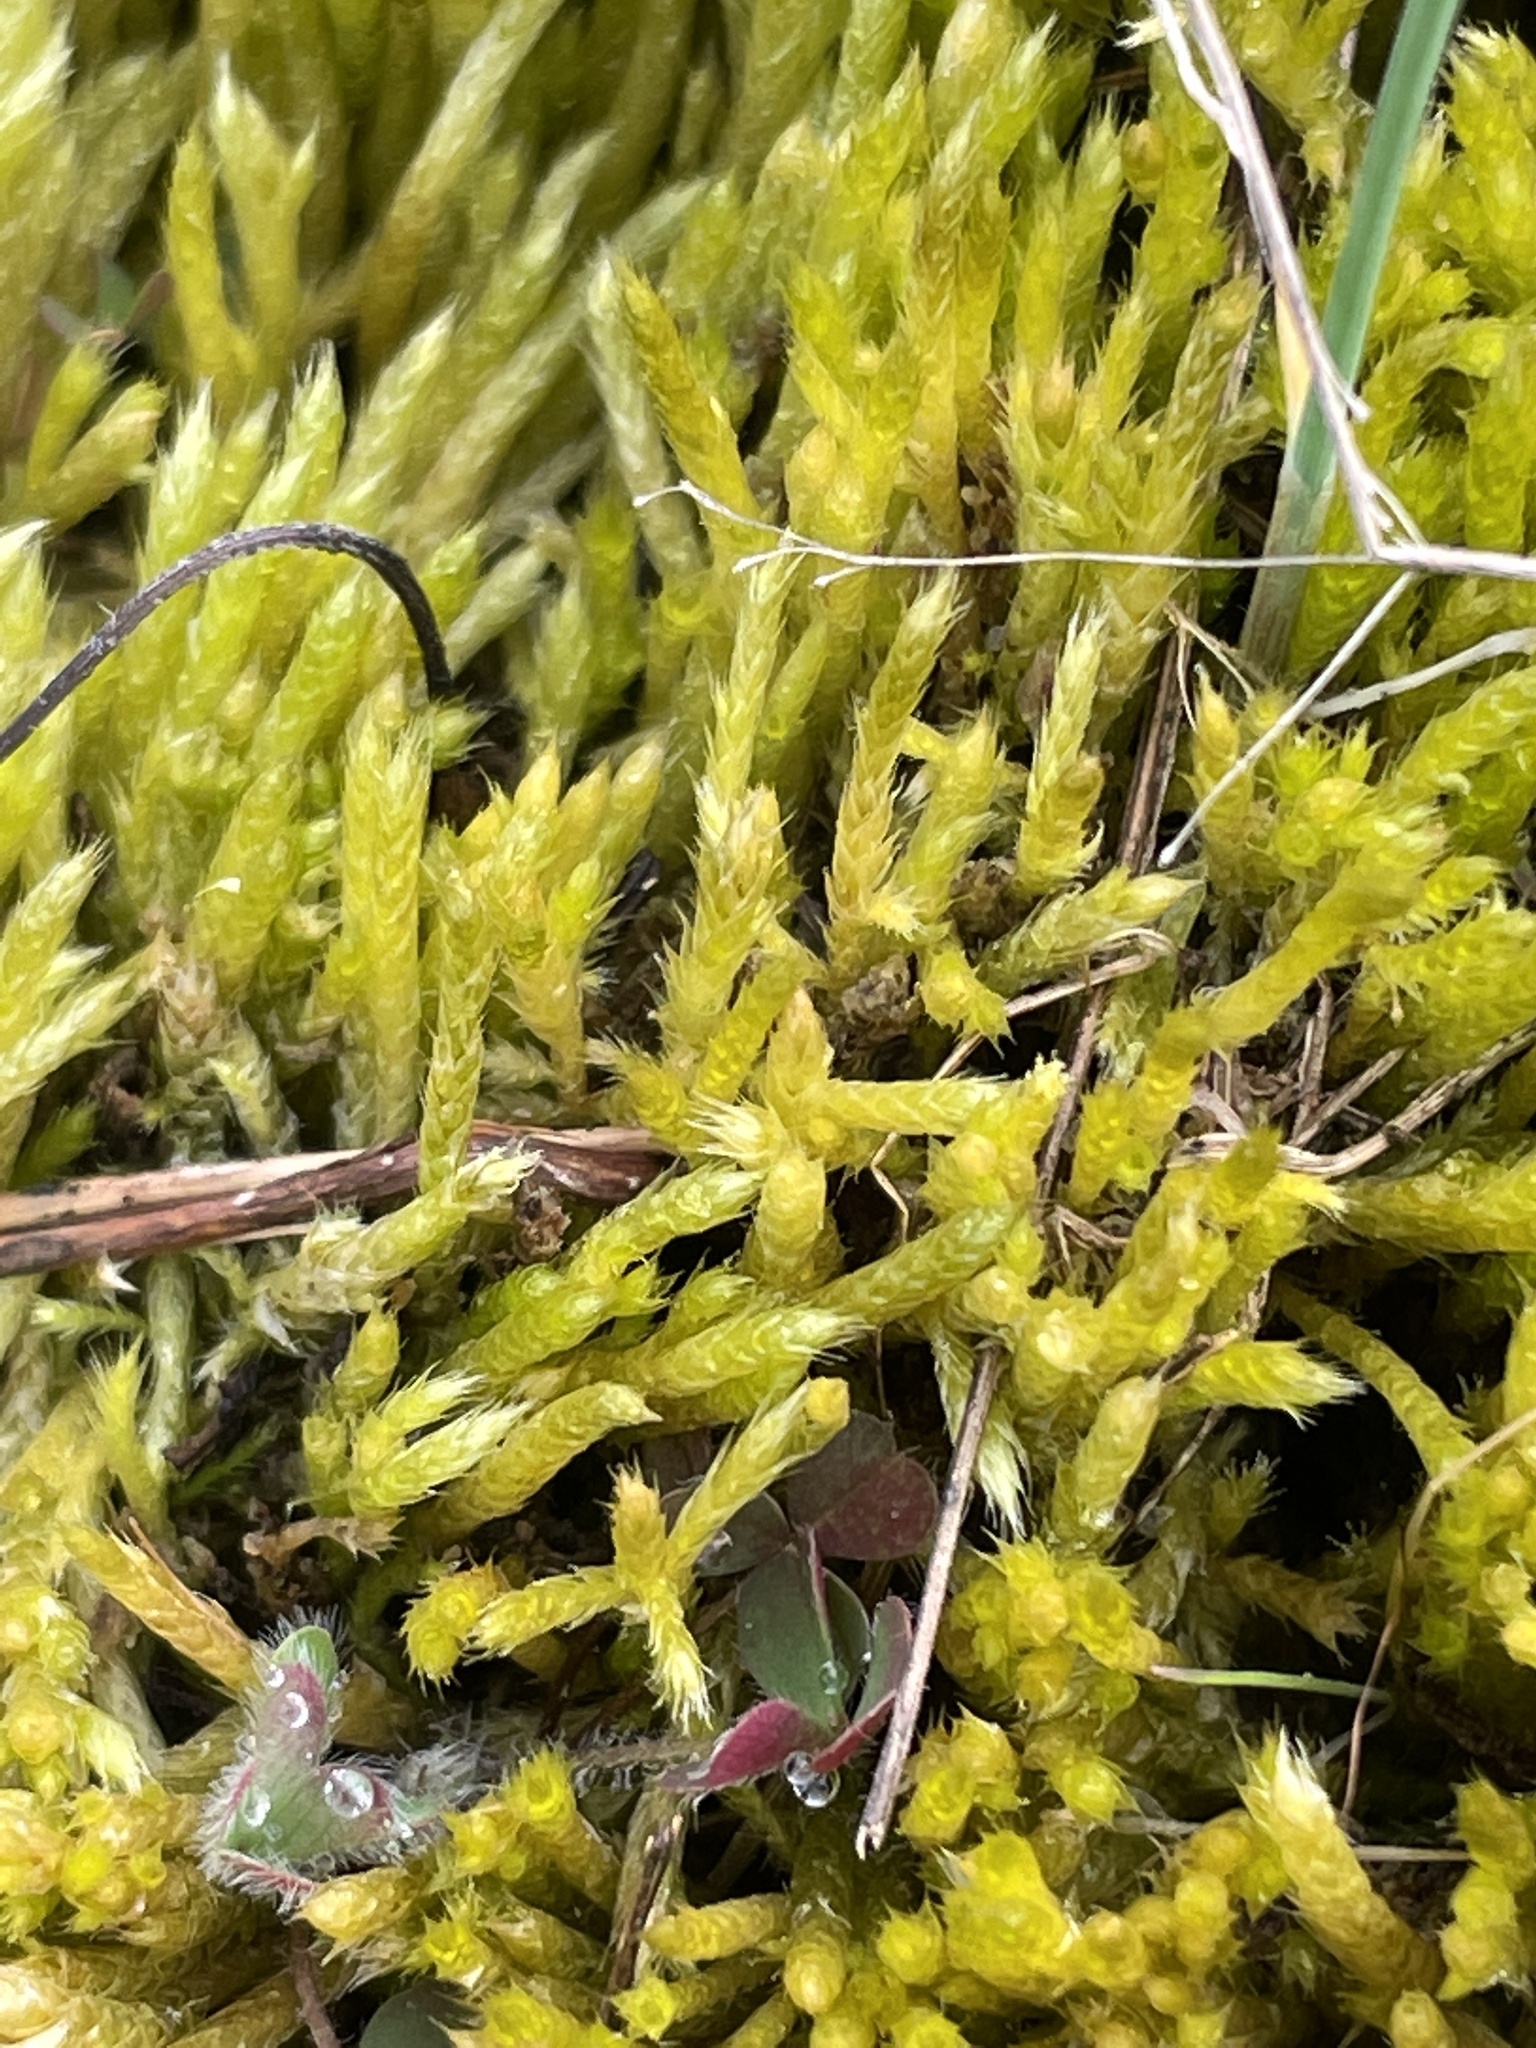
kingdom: Plantae
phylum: Bryophyta
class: Bryopsida
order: Hypnales
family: Brachytheciaceae
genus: Brachythecium
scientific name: Brachythecium albicans
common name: Whitish ragged moss
